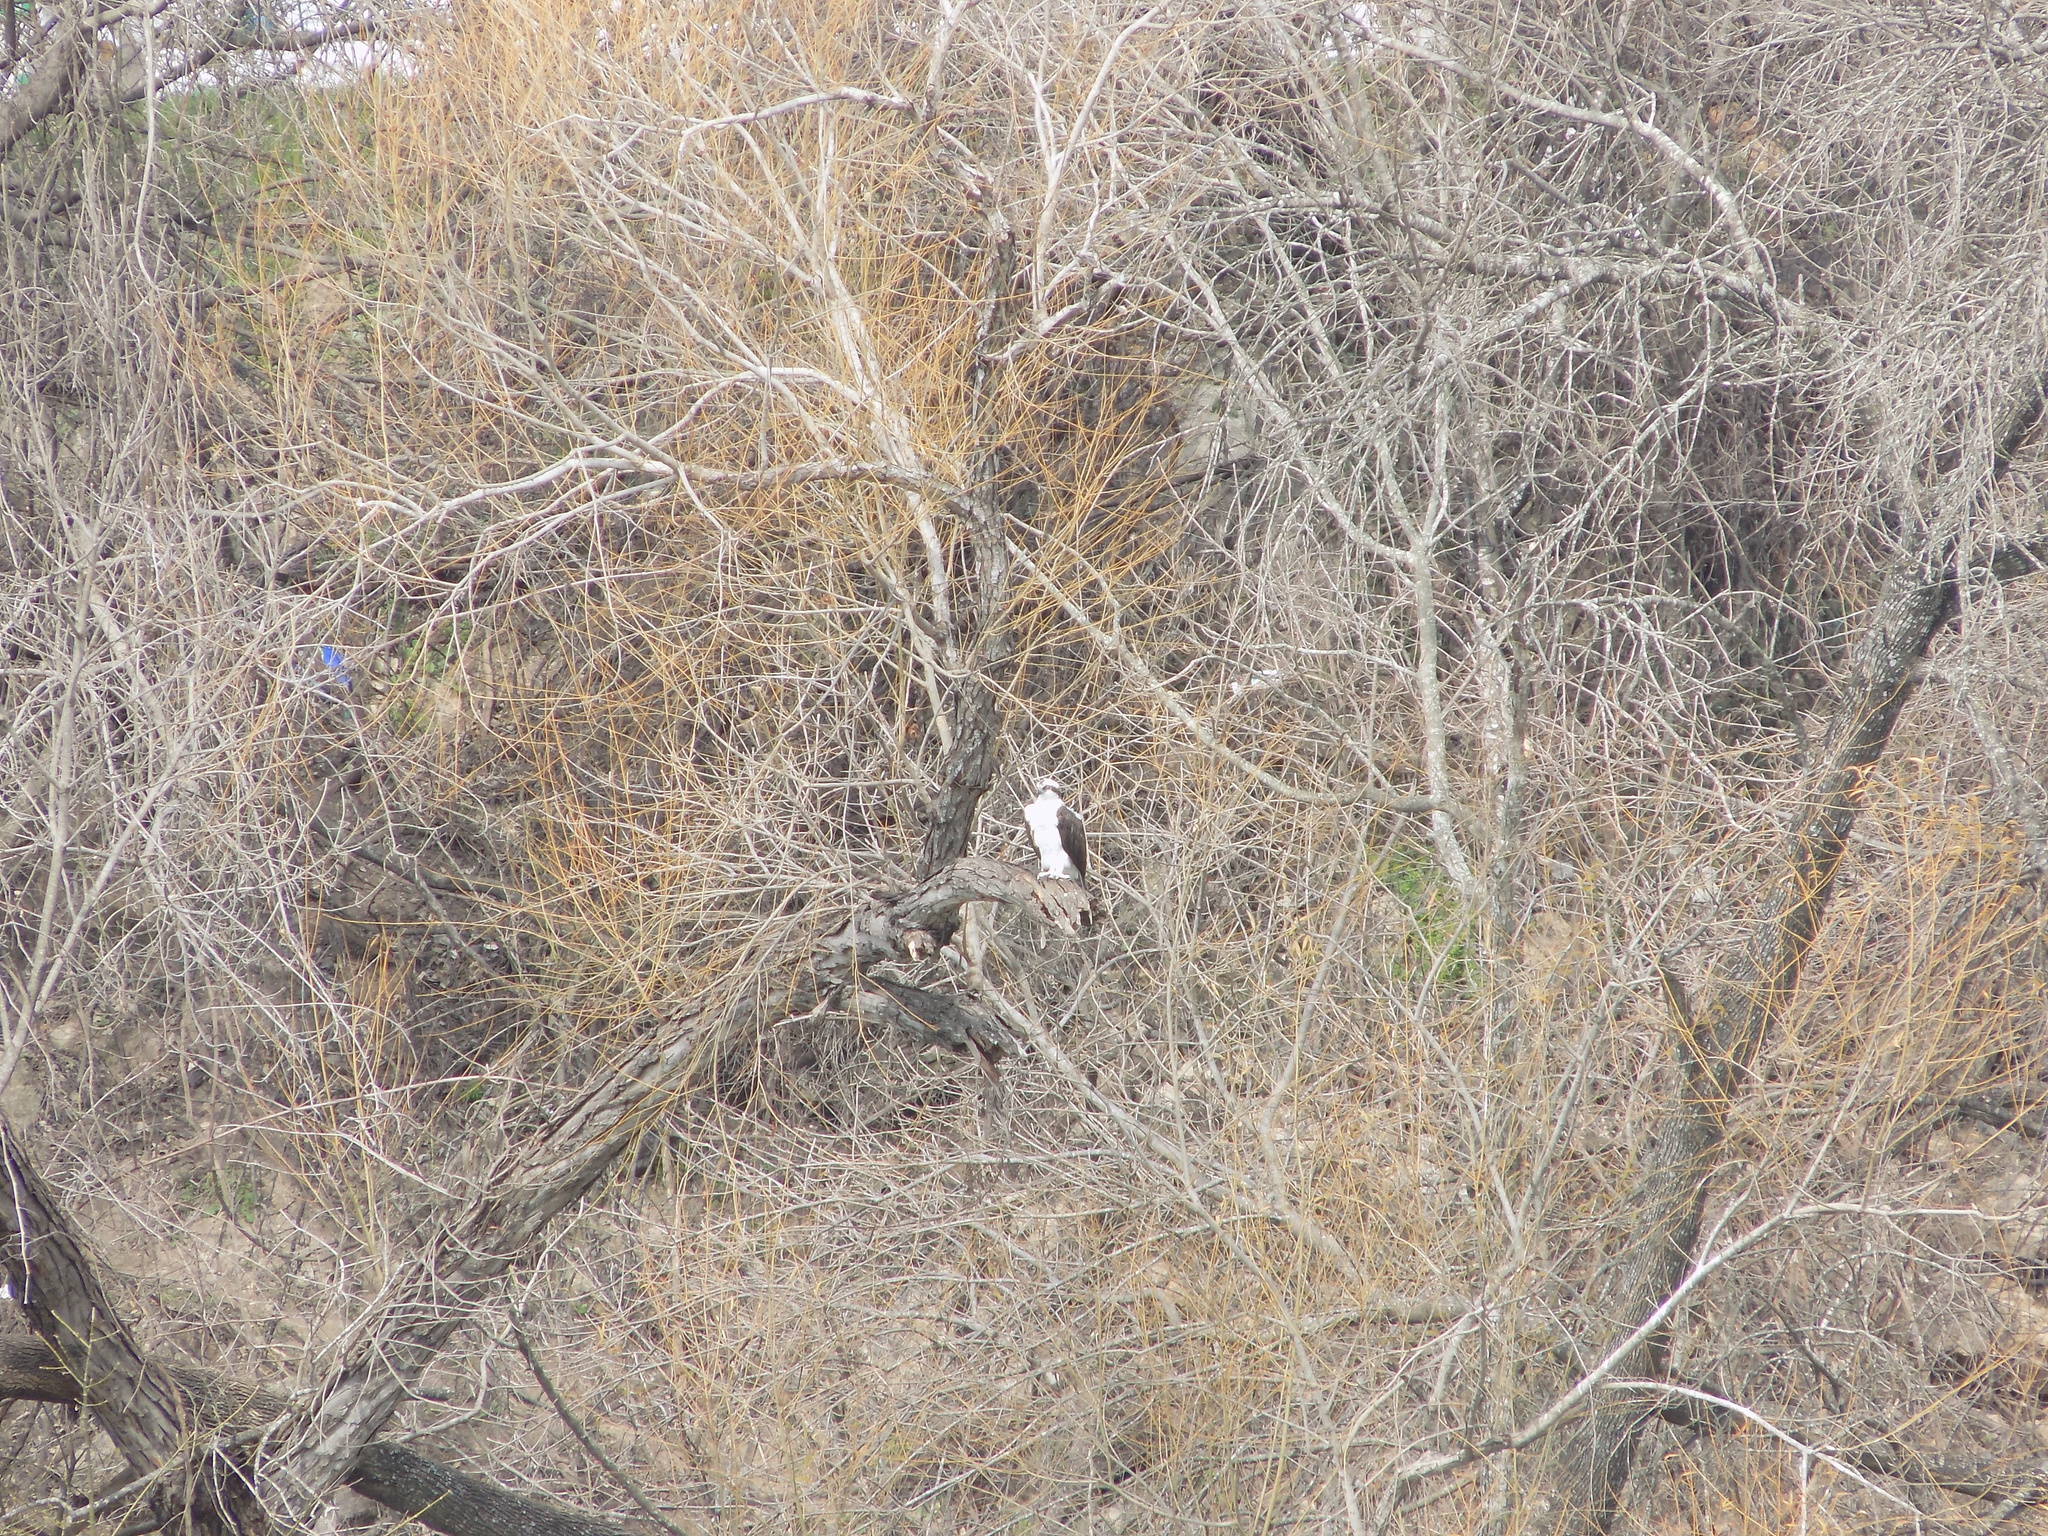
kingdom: Animalia
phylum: Chordata
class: Aves
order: Accipitriformes
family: Pandionidae
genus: Pandion
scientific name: Pandion haliaetus
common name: Osprey
